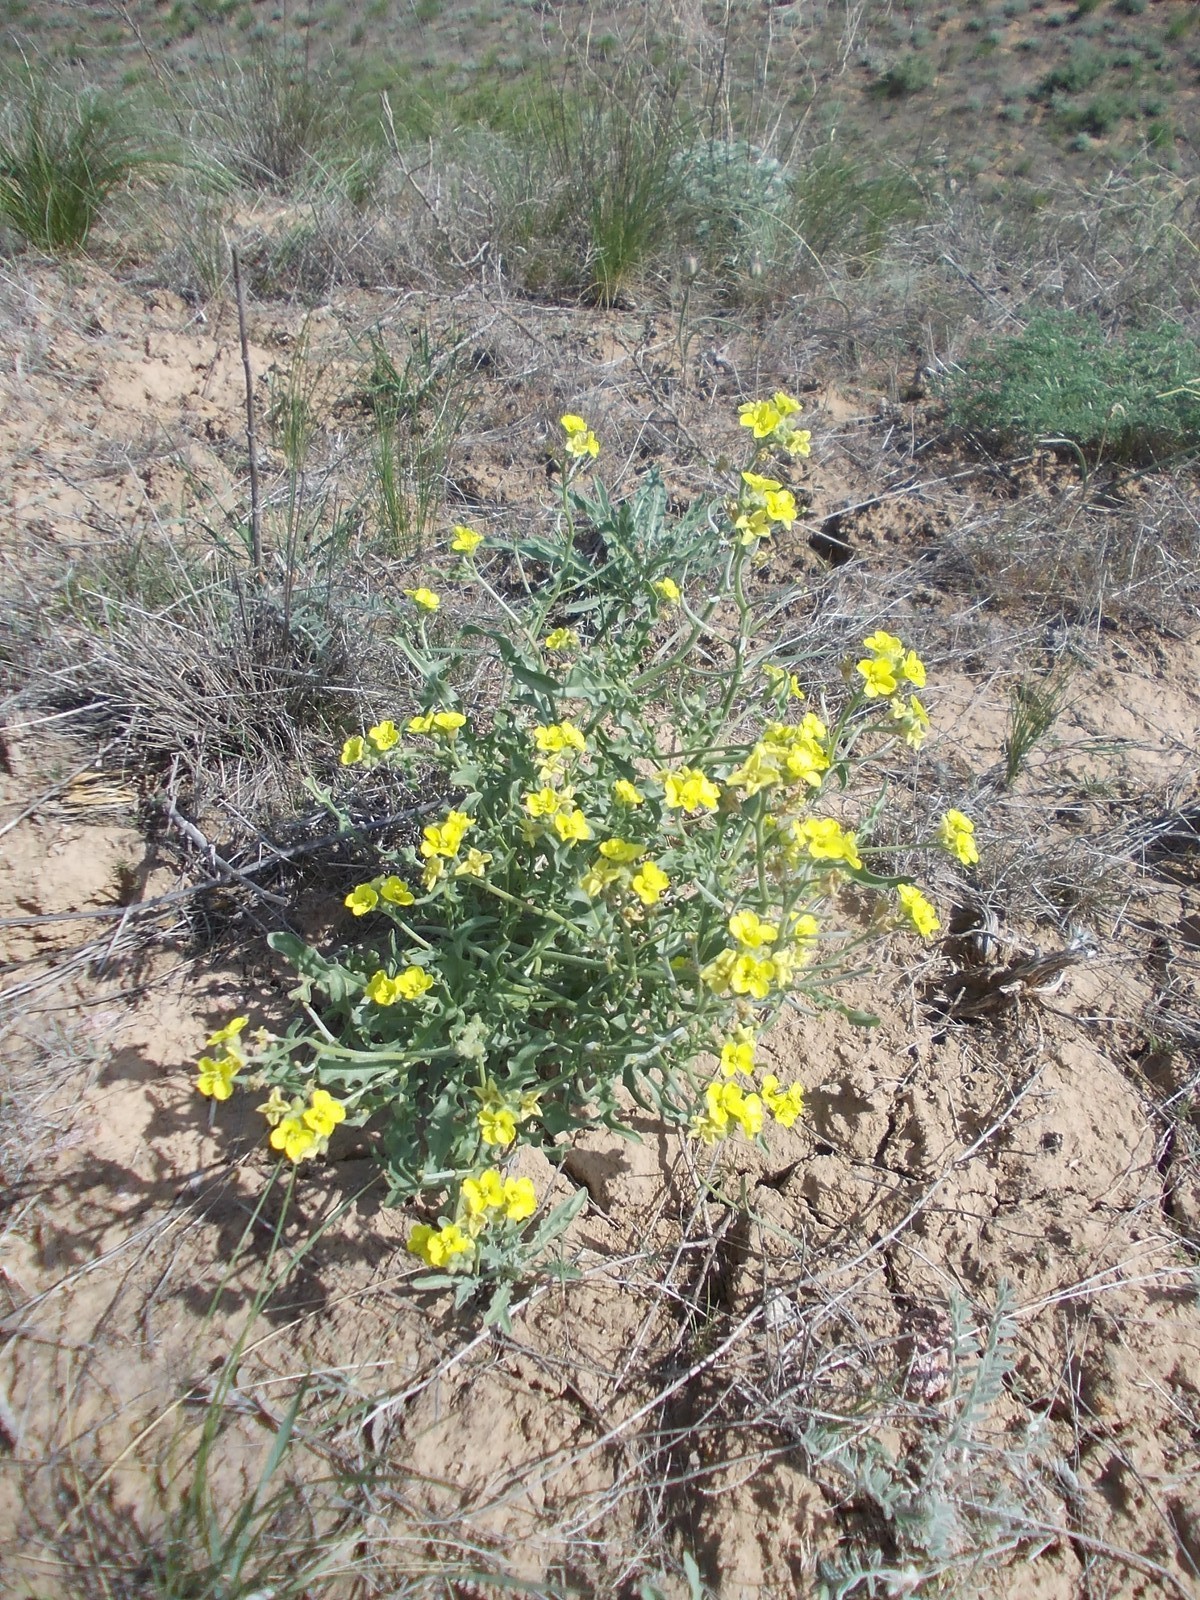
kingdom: Plantae
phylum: Tracheophyta
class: Magnoliopsida
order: Brassicales
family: Brassicaceae
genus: Sterigmostemum
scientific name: Sterigmostemum caspicum
